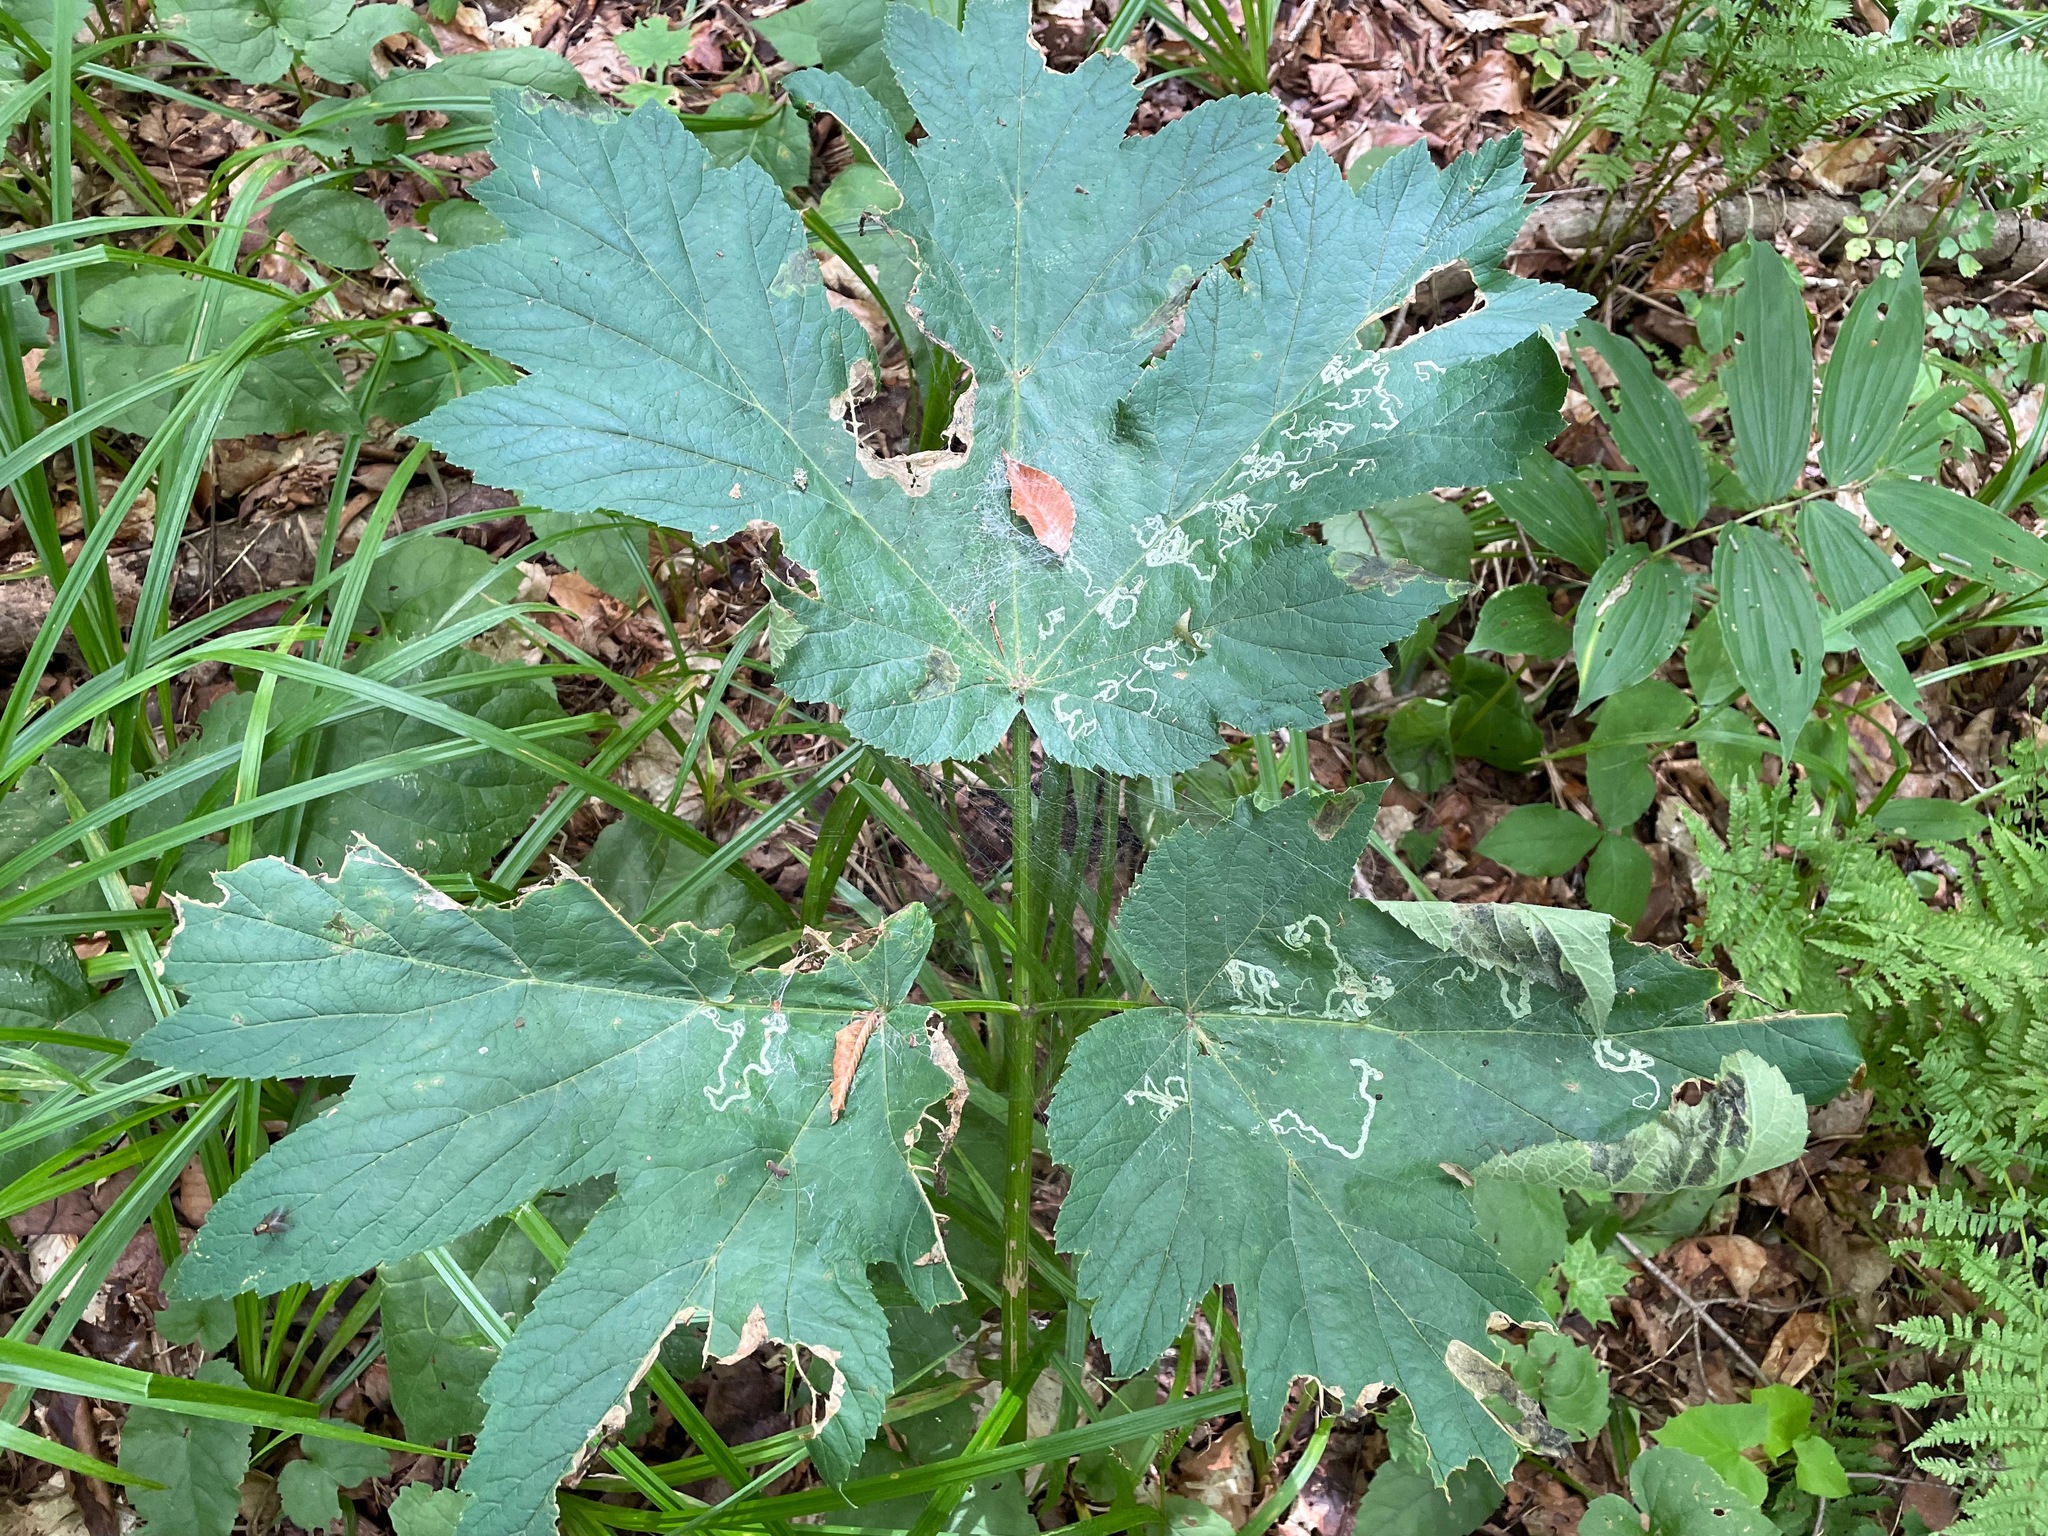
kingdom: Plantae
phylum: Tracheophyta
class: Magnoliopsida
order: Apiales
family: Apiaceae
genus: Heracleum
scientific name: Heracleum maximum
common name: American cow parsnip
